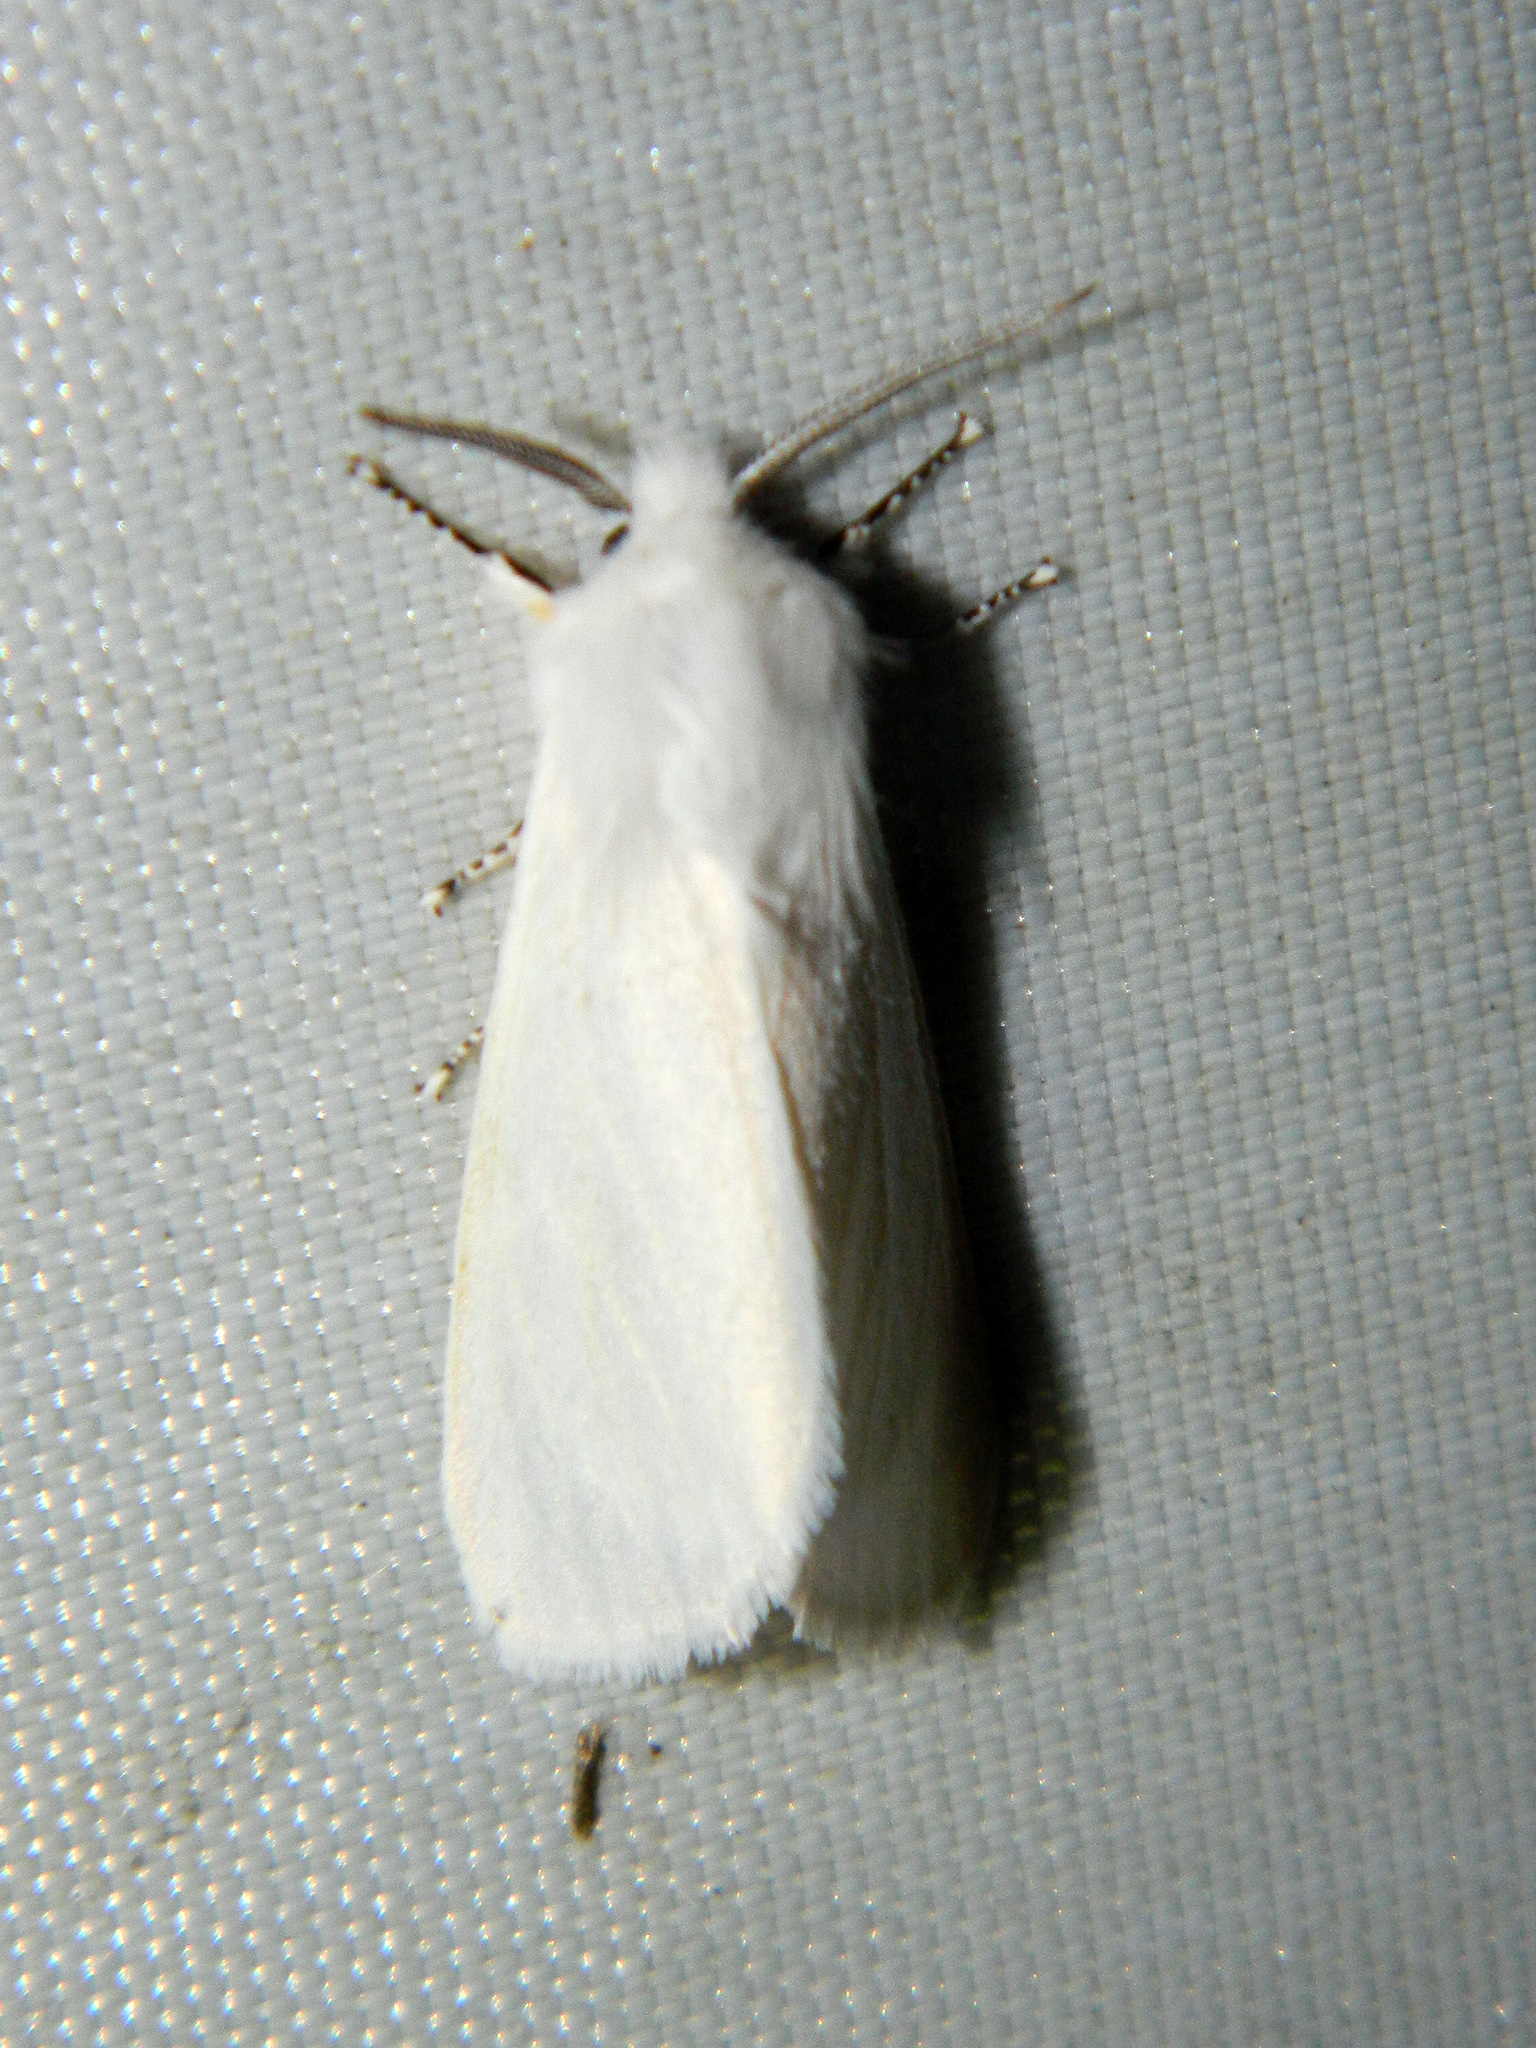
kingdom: Animalia
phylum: Arthropoda
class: Insecta
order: Lepidoptera
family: Erebidae
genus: Hyphantria
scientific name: Hyphantria cunea
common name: American white moth
